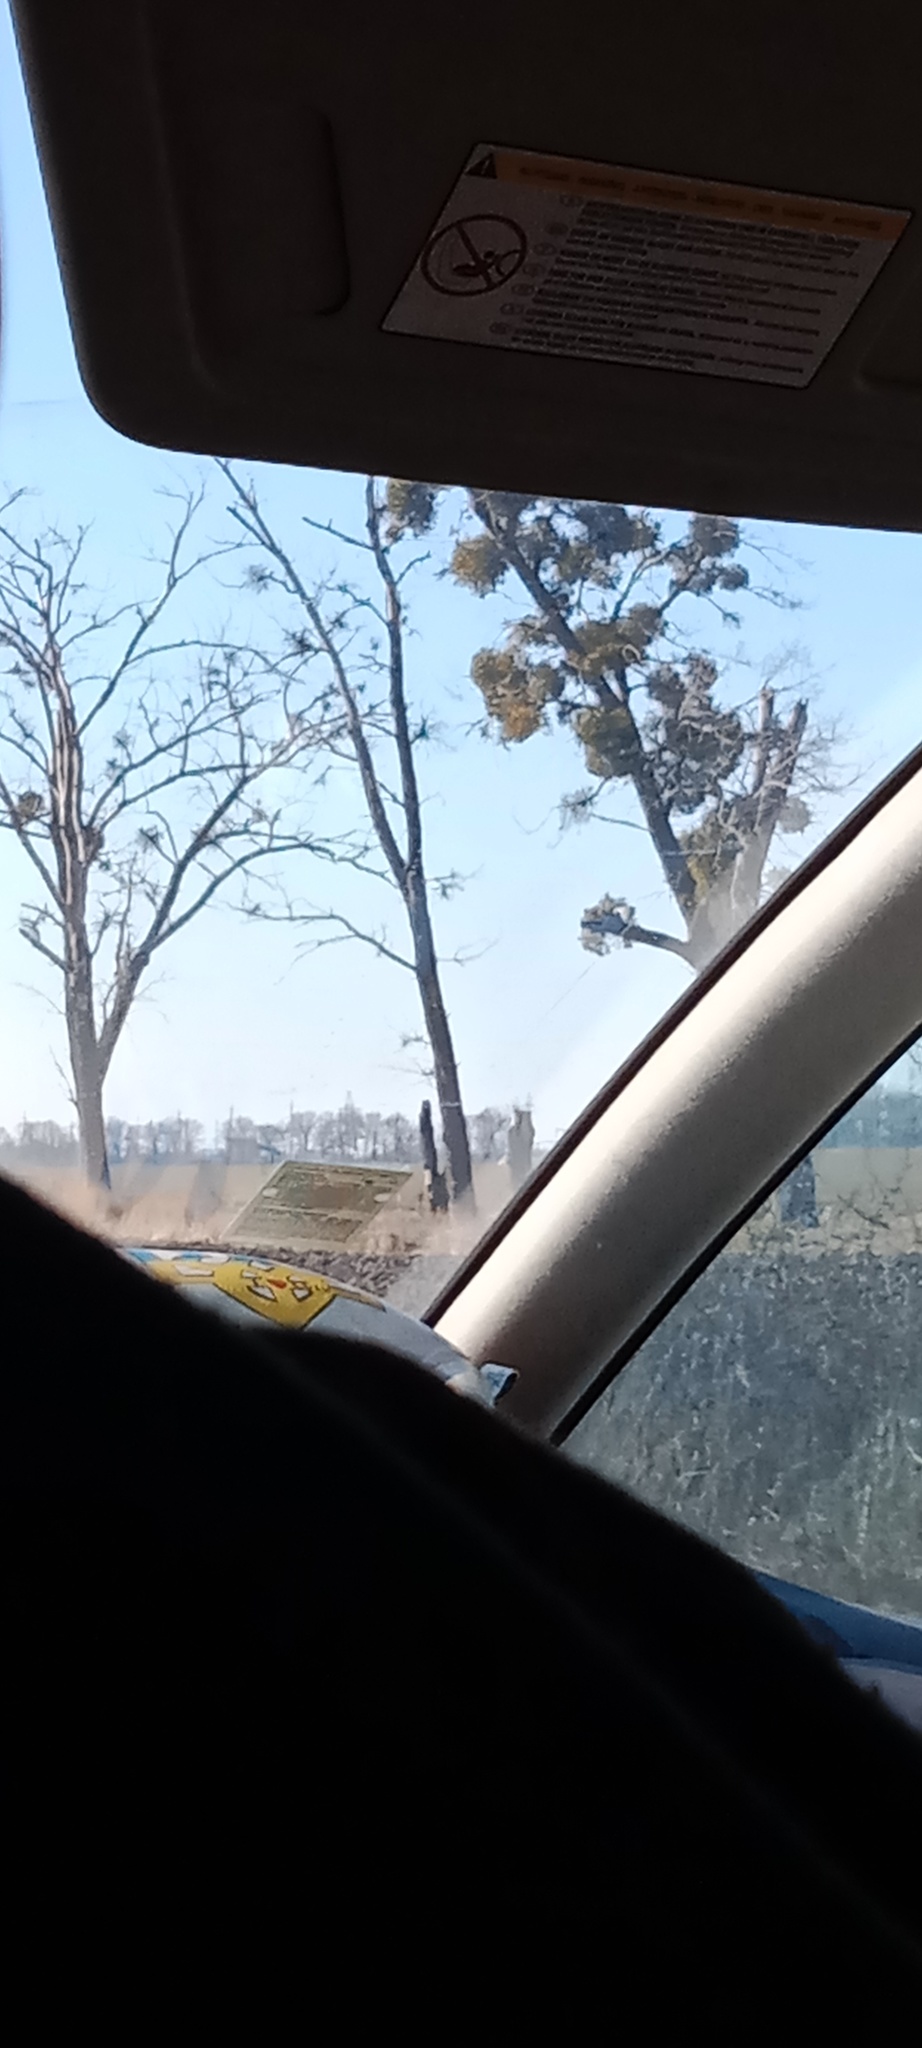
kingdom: Plantae
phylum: Tracheophyta
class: Magnoliopsida
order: Santalales
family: Viscaceae
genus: Viscum
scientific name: Viscum album
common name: Mistletoe
